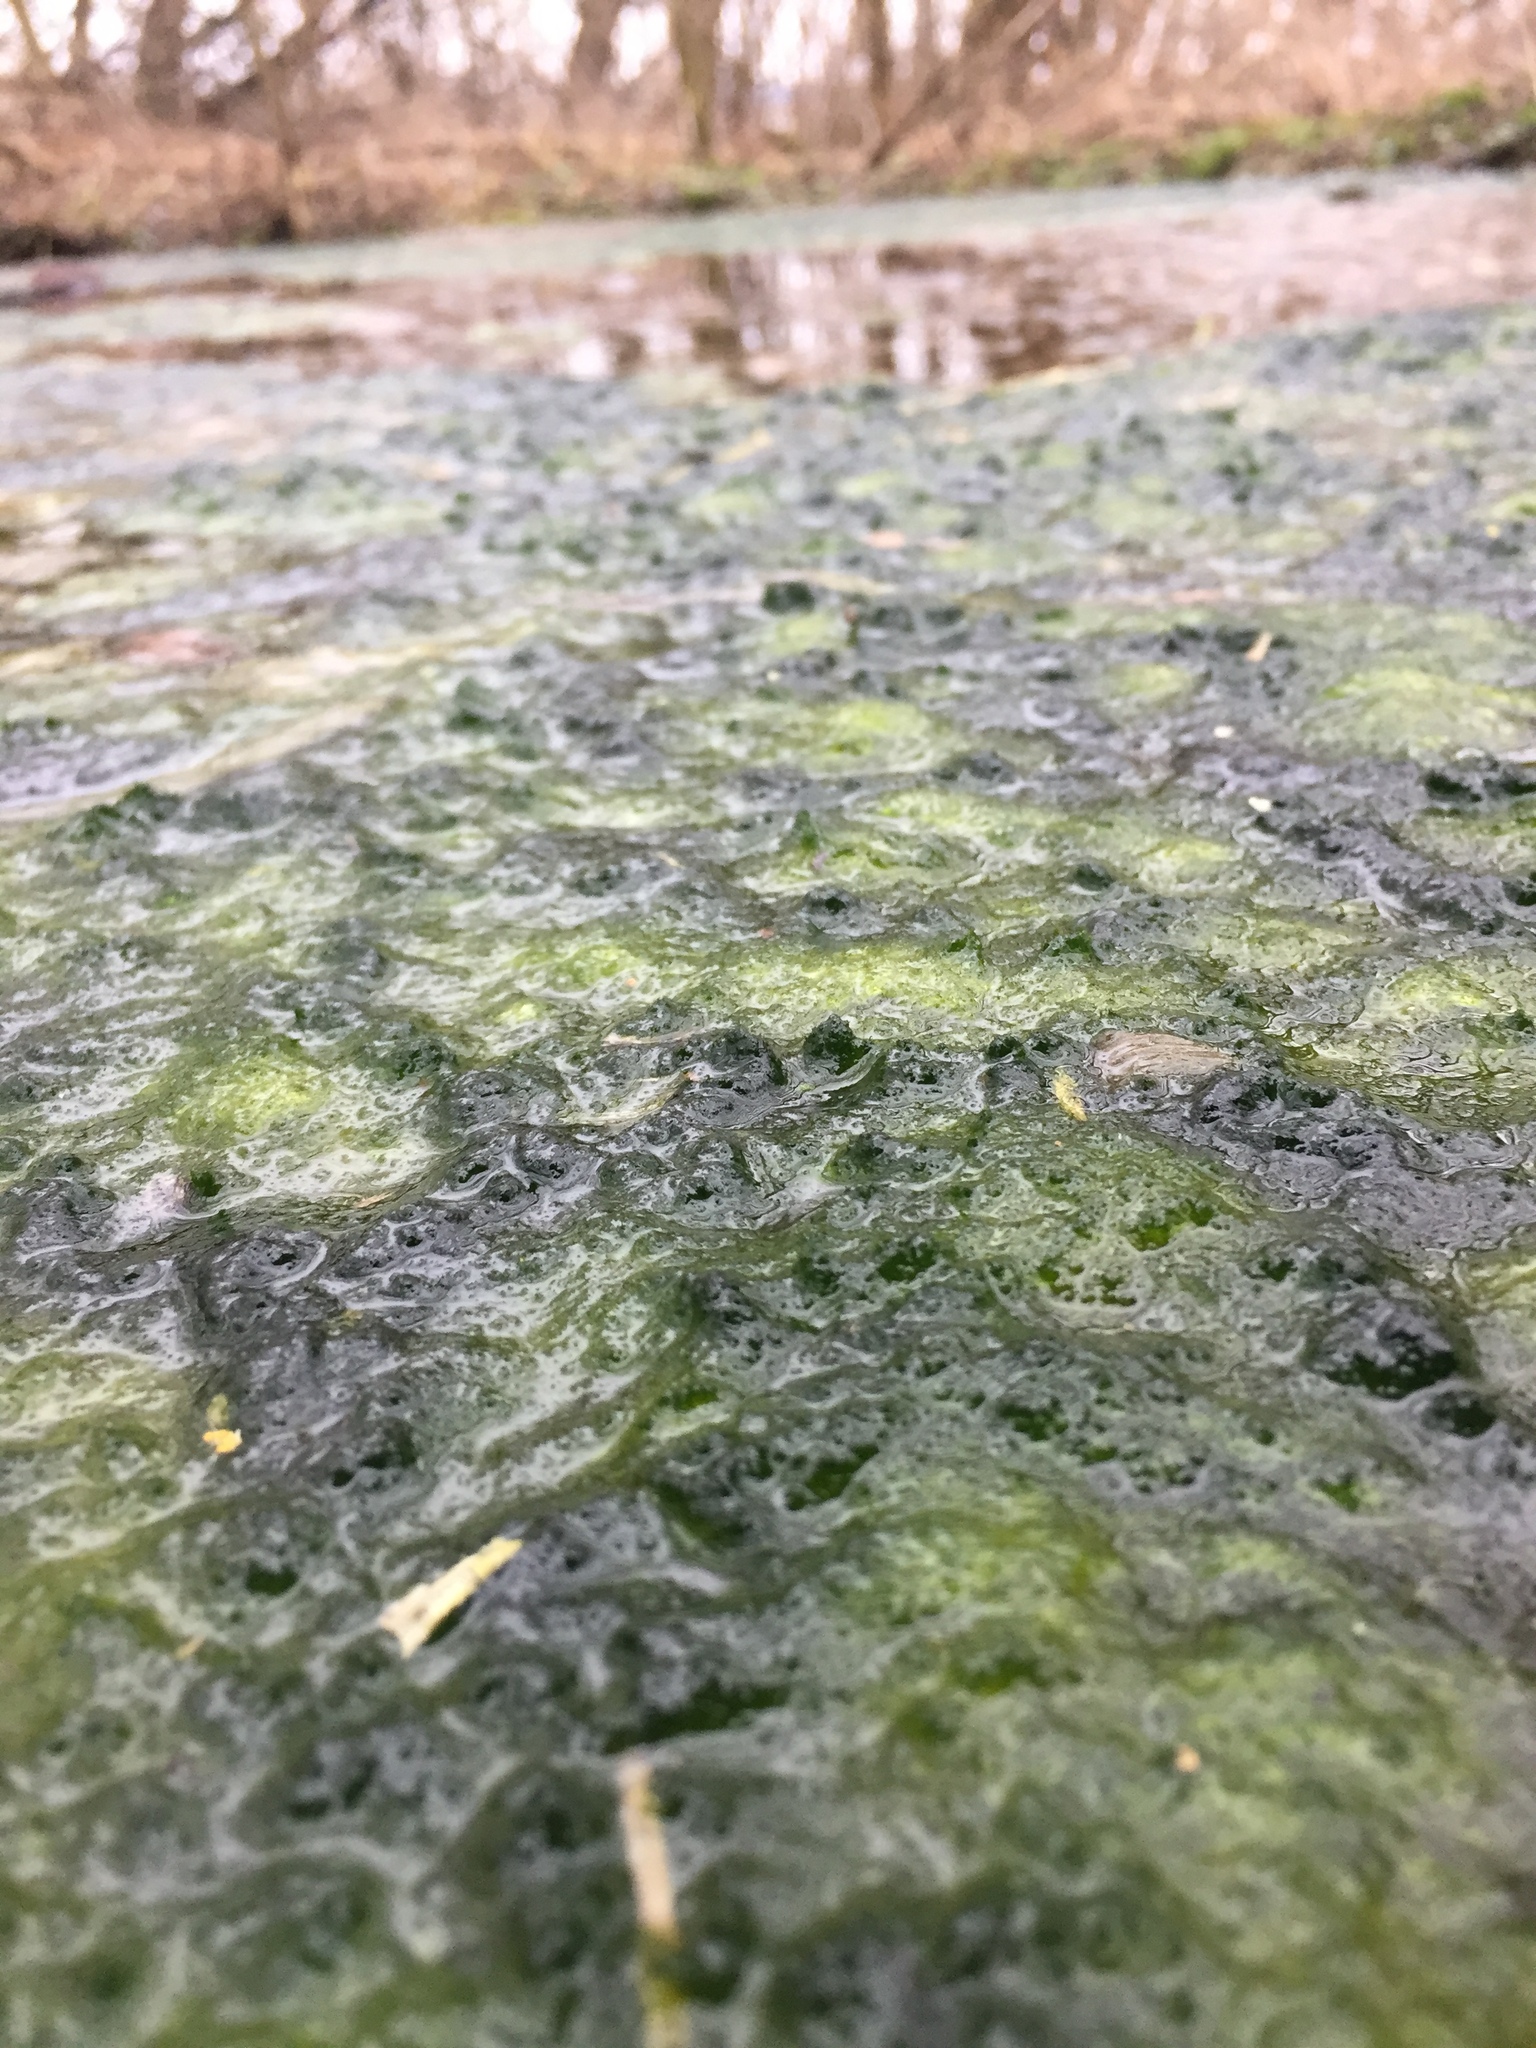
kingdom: Plantae
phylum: Chlorophyta
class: Ulvophyceae
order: Ulvales
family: Ulvaceae
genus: Ulva
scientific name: Ulva intestinalis
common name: Gut weed
